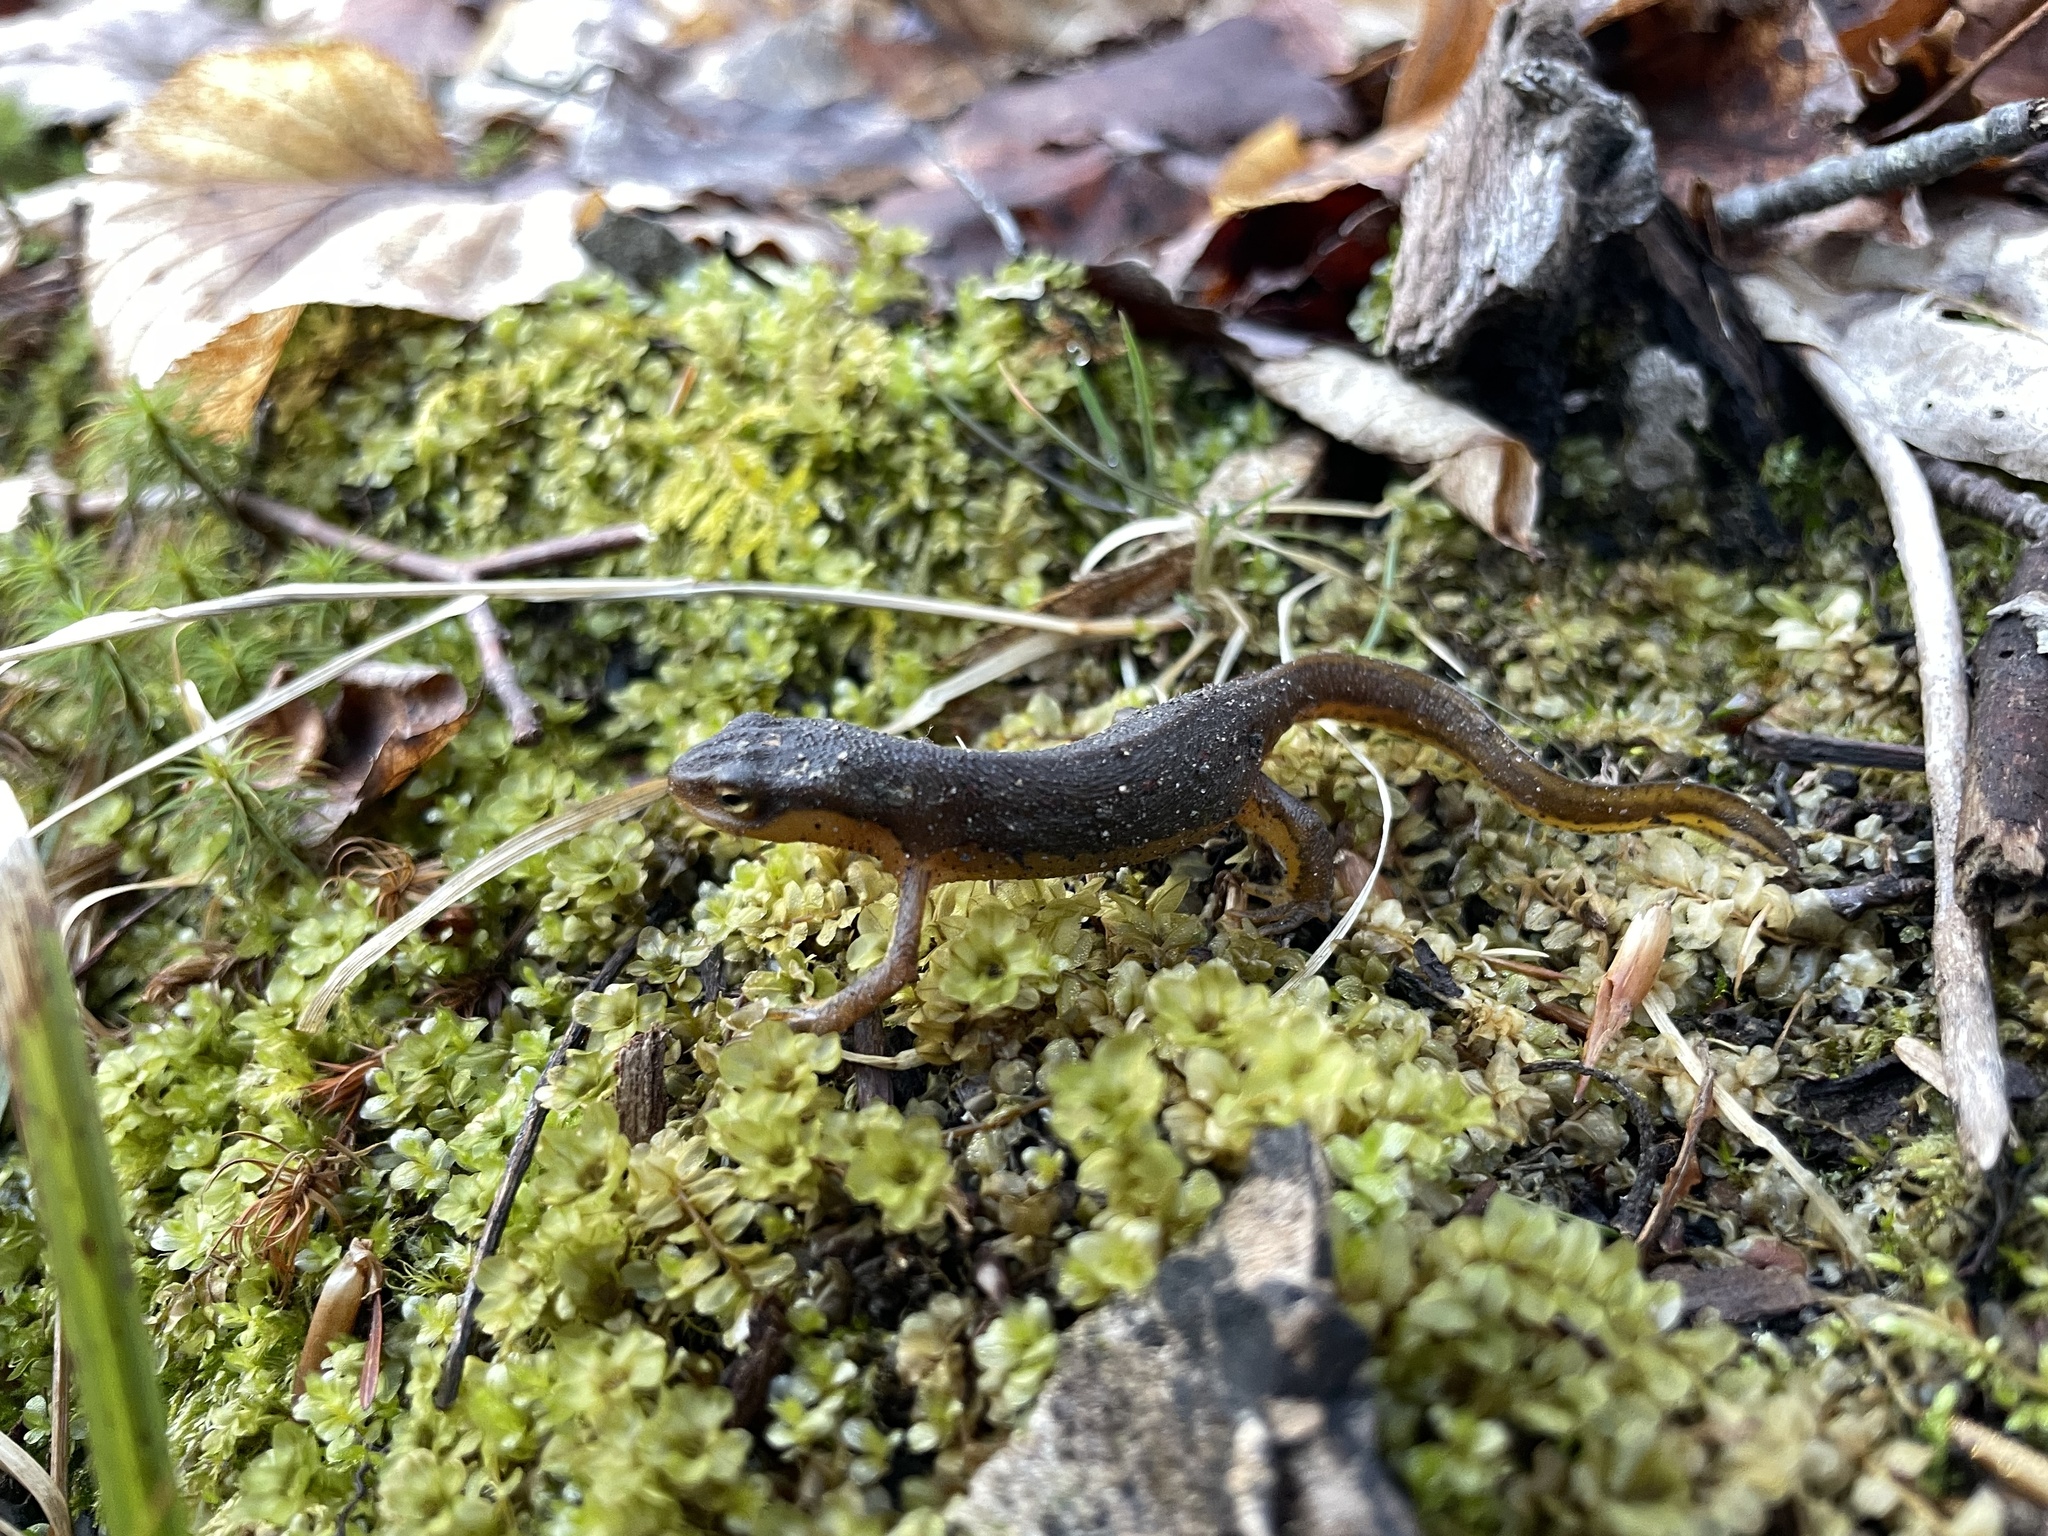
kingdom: Animalia
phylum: Chordata
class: Amphibia
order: Caudata
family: Salamandridae
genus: Notophthalmus
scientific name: Notophthalmus viridescens
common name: Eastern newt
